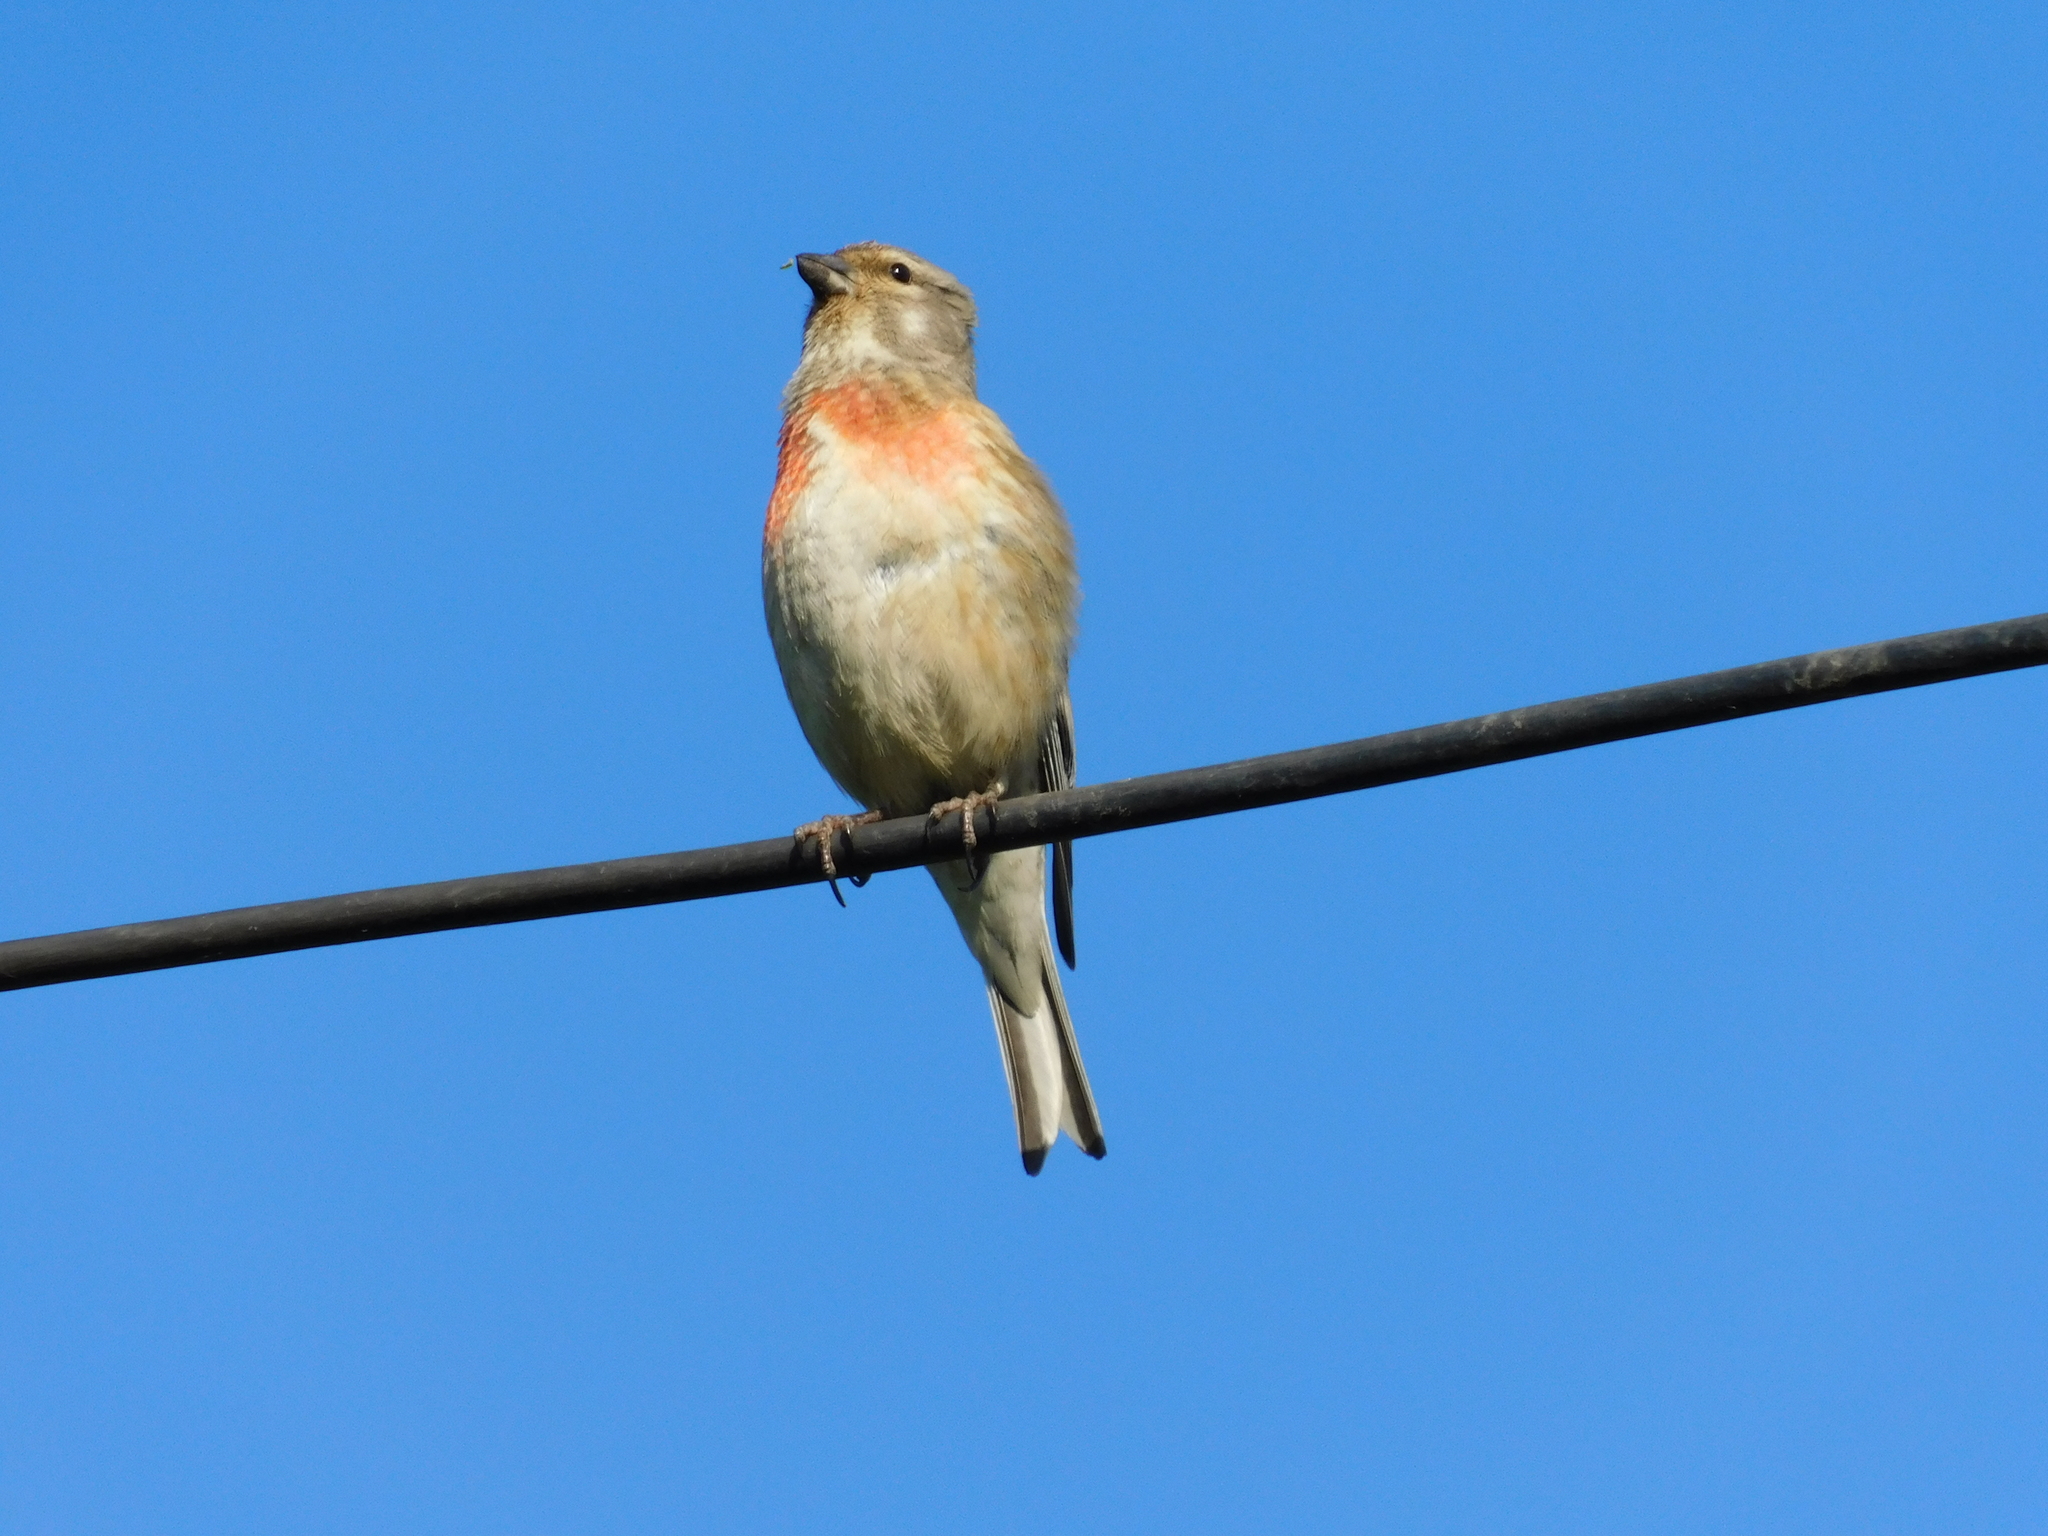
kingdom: Animalia
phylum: Chordata
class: Aves
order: Passeriformes
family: Fringillidae
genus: Linaria
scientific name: Linaria cannabina
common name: Common linnet
